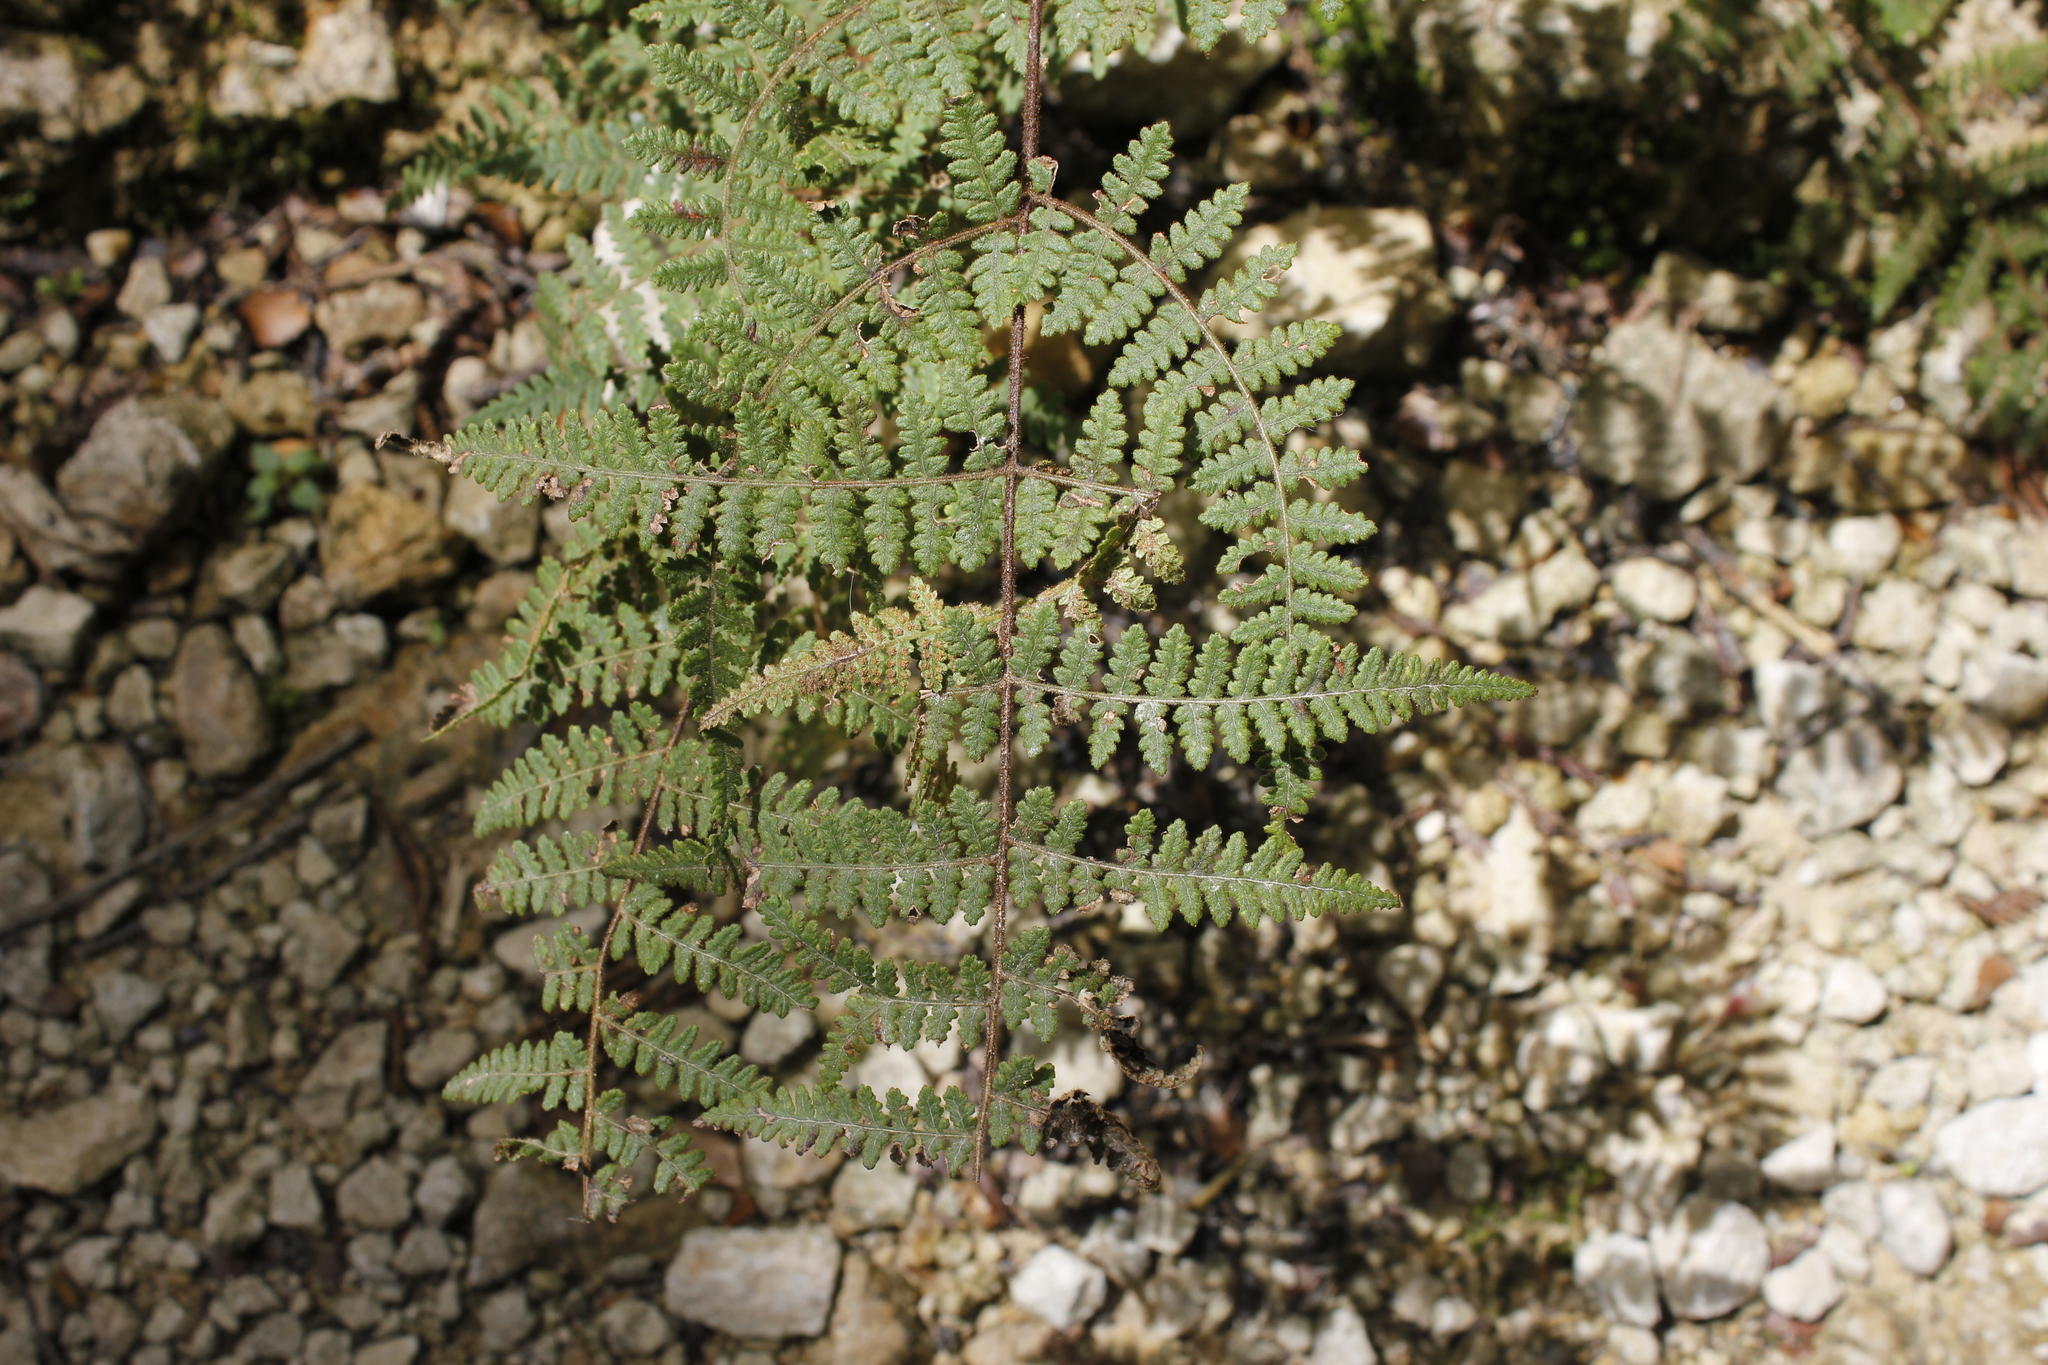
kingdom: Plantae
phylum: Tracheophyta
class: Polypodiopsida
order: Polypodiales
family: Dennstaedtiaceae
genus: Hypolepis
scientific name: Hypolepis rugosula
